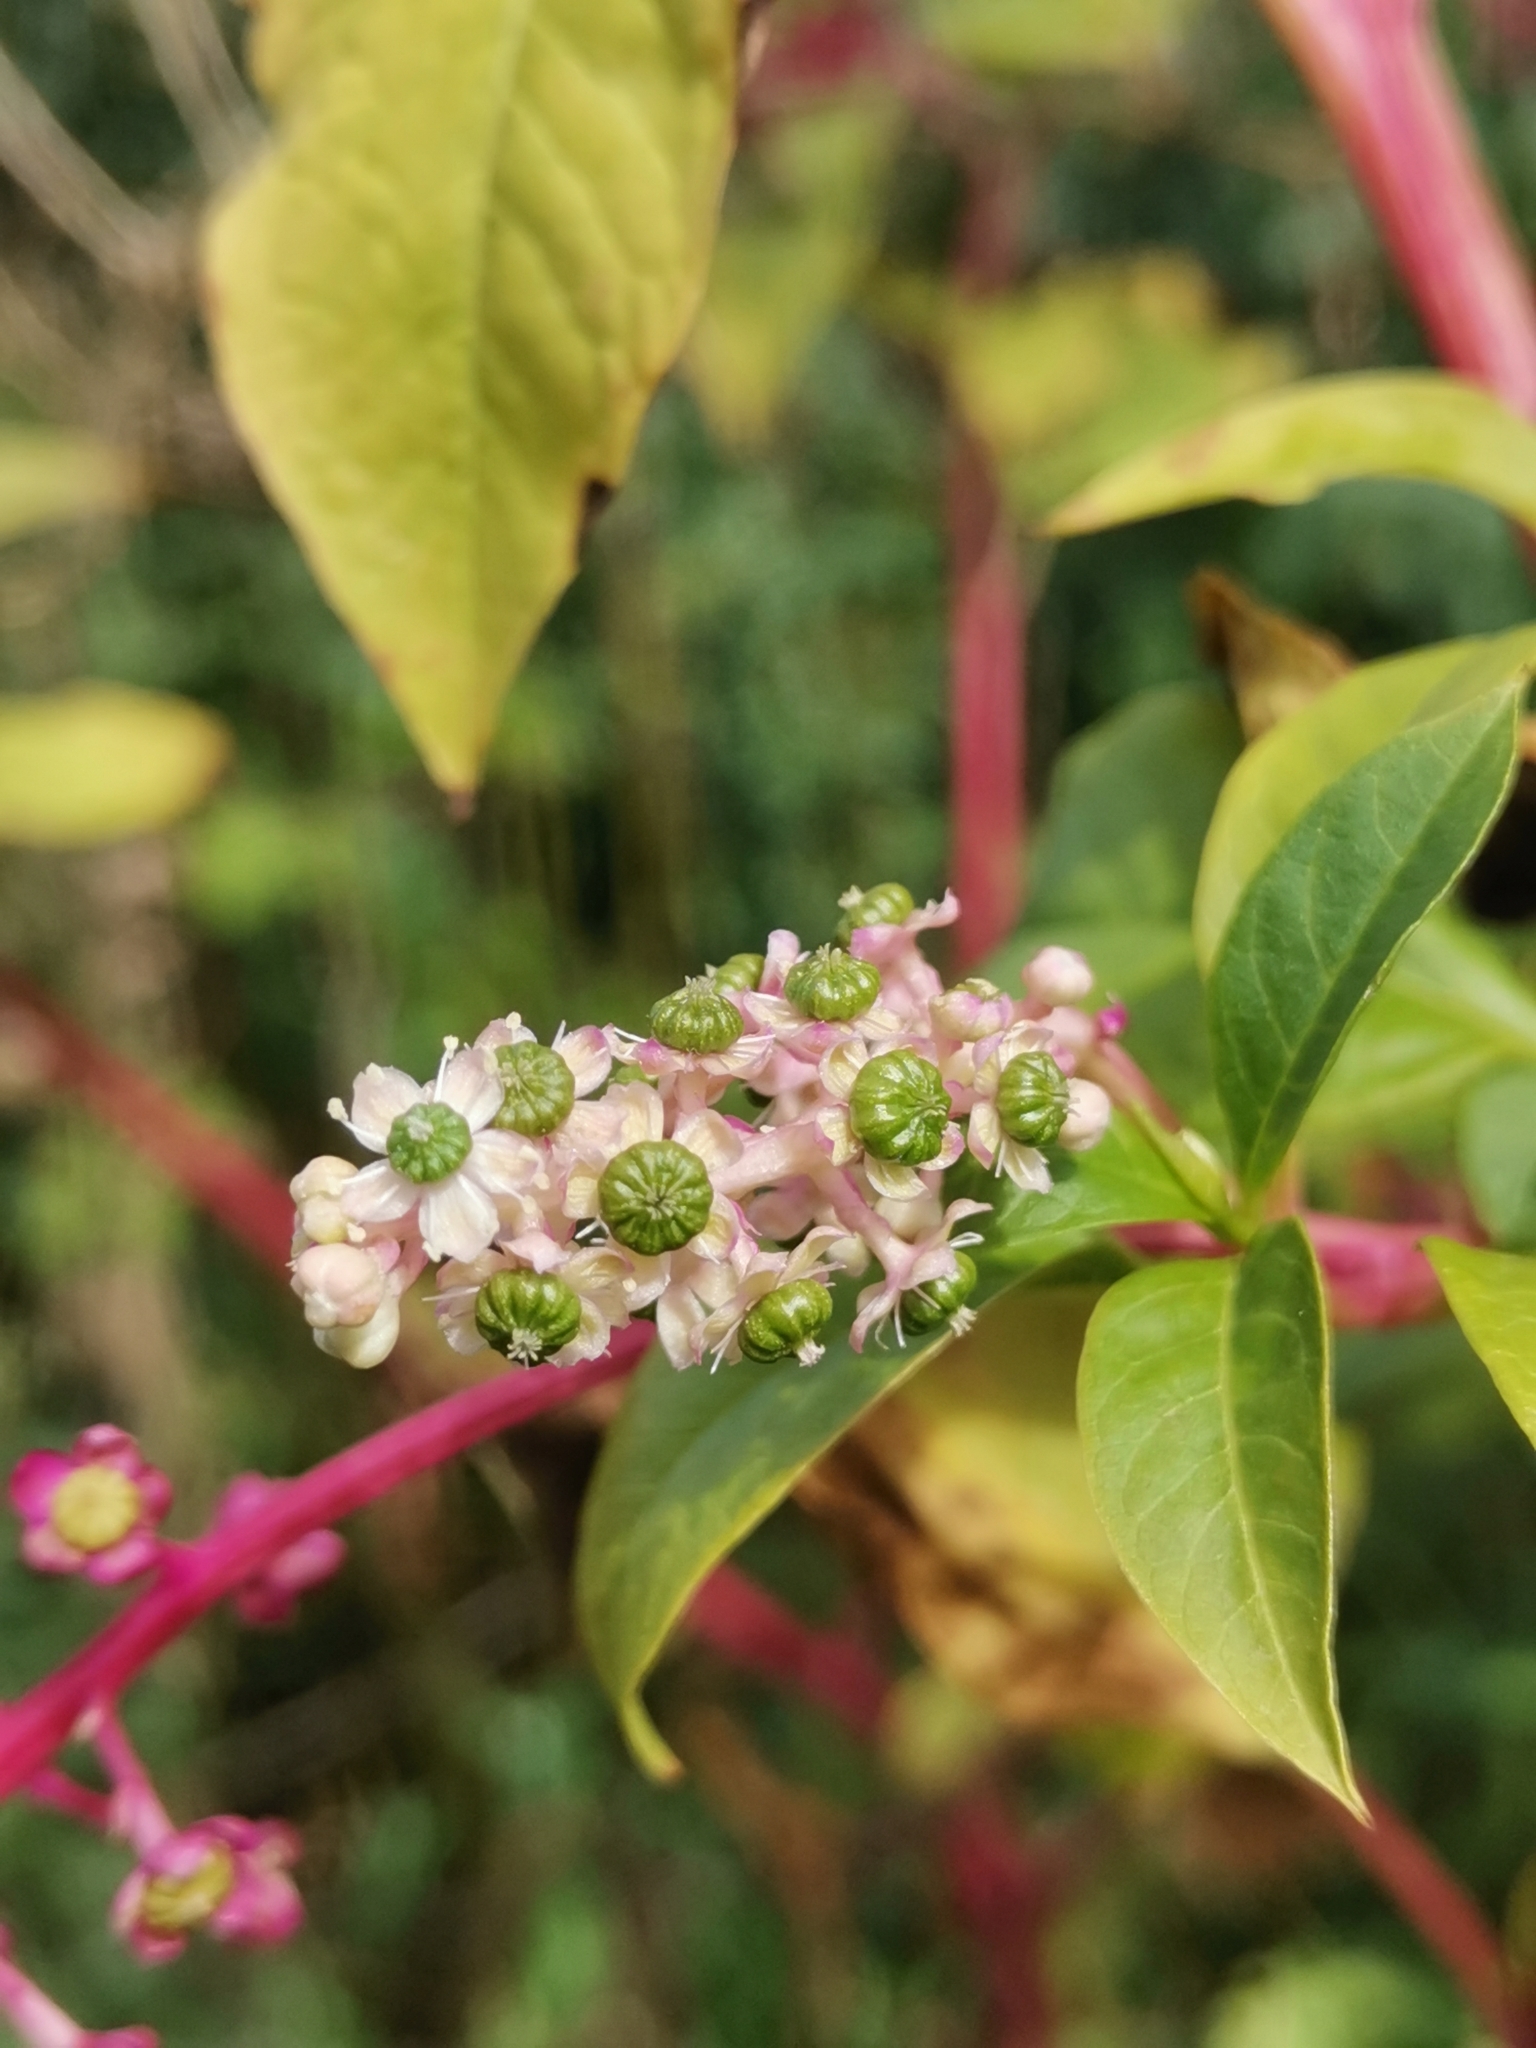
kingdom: Plantae
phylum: Tracheophyta
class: Magnoliopsida
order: Caryophyllales
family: Phytolaccaceae
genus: Phytolacca
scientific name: Phytolacca americana
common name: American pokeweed
